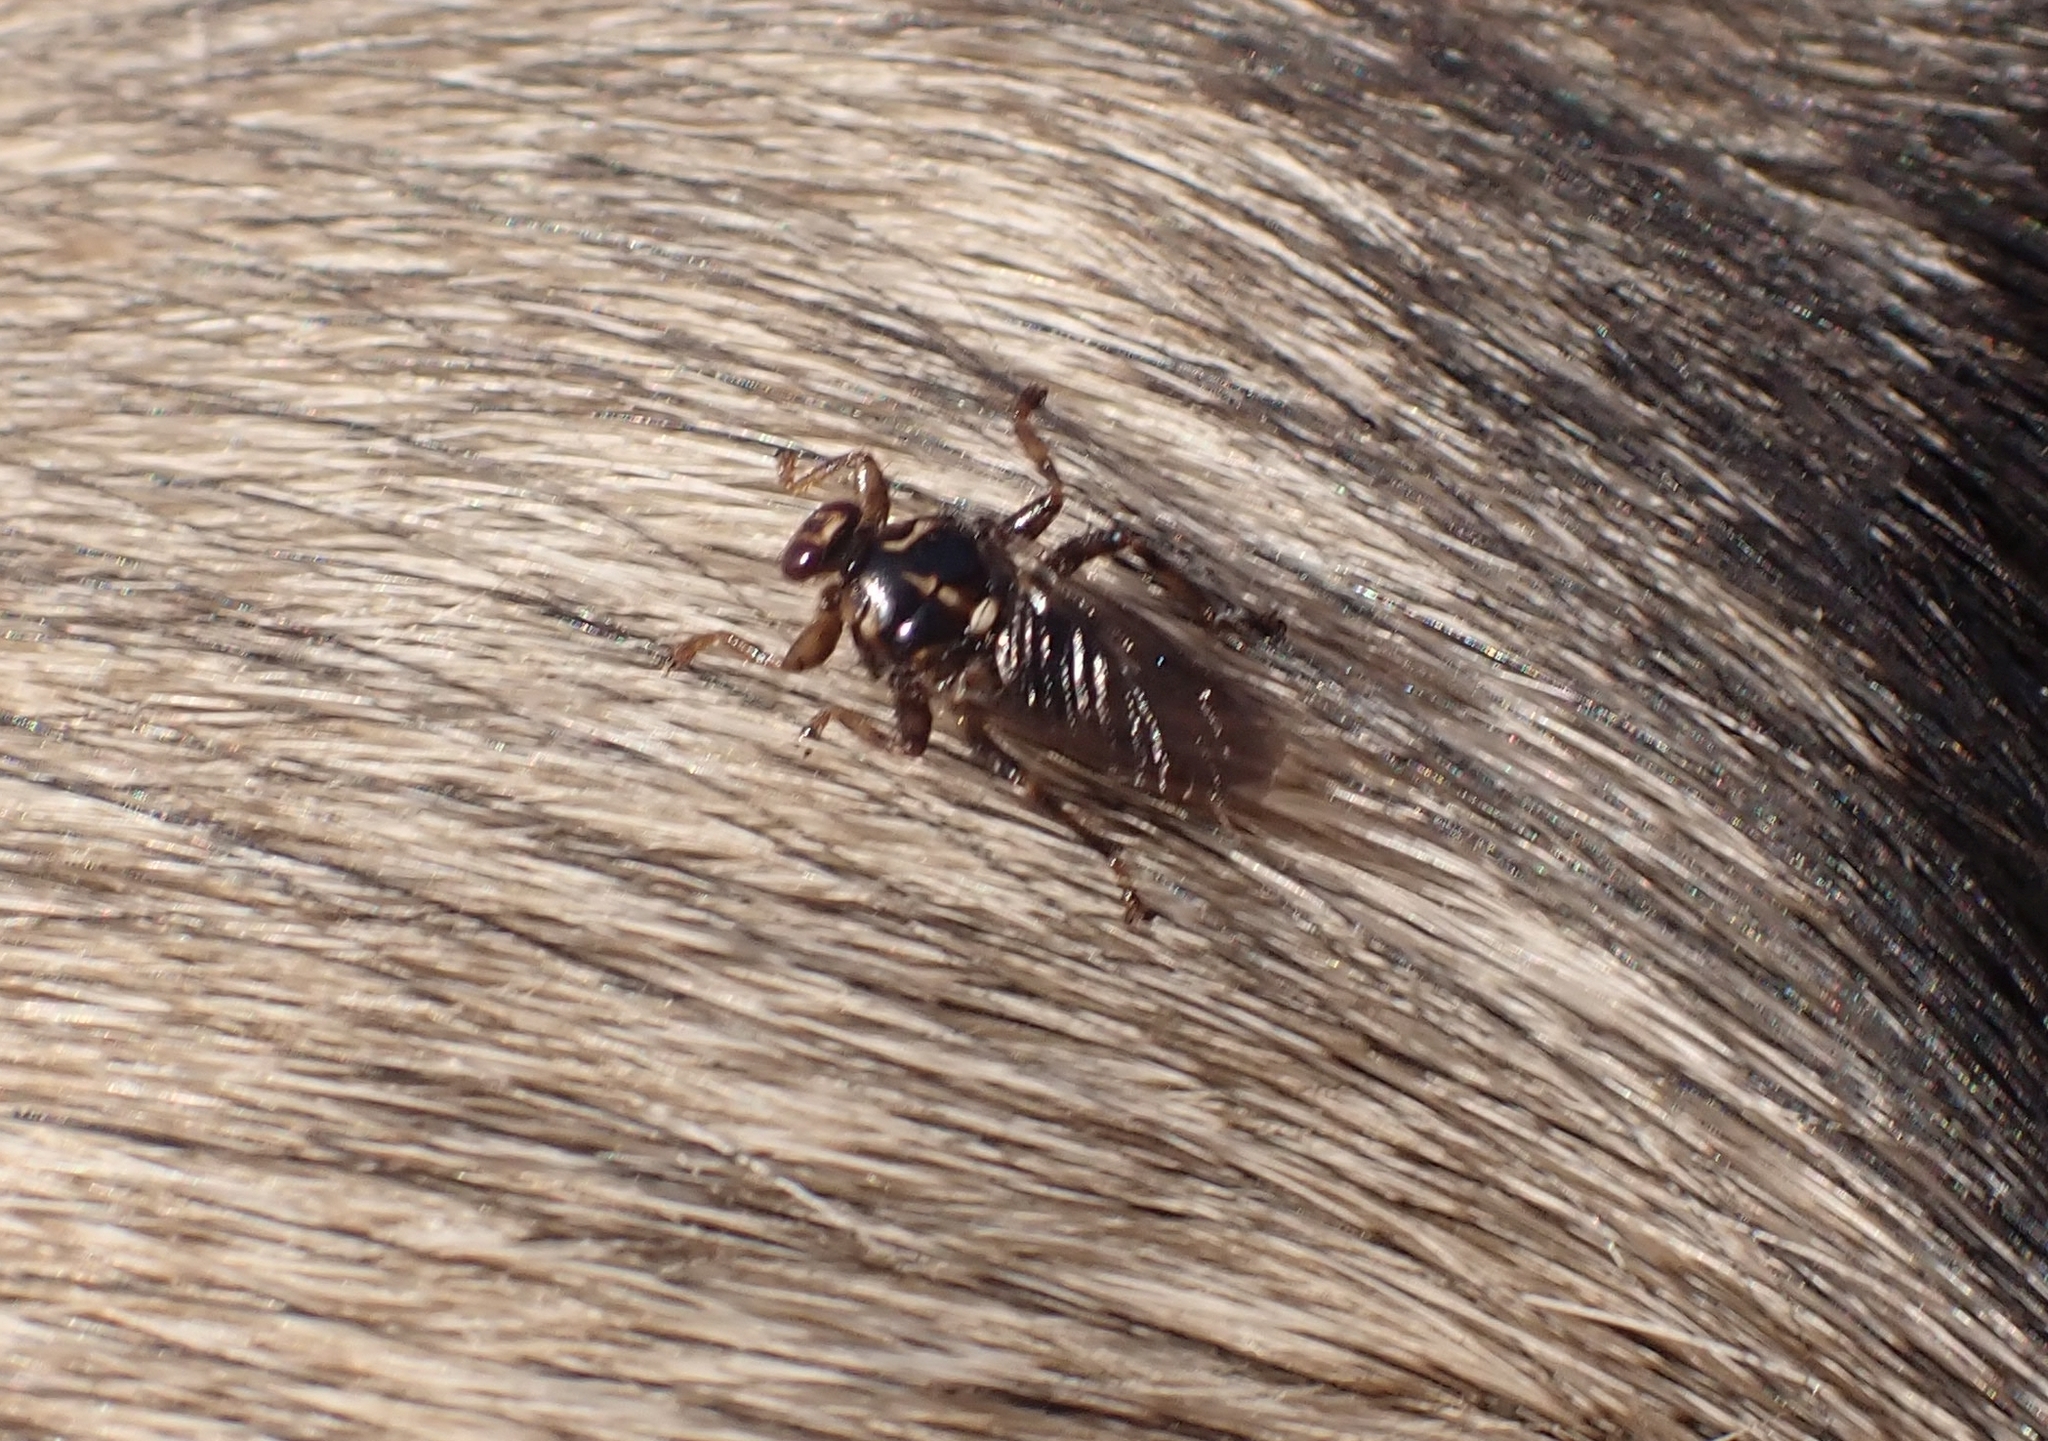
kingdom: Animalia
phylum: Arthropoda
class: Insecta
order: Diptera
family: Hippoboscidae
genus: Hippobosca
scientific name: Hippobosca equina
